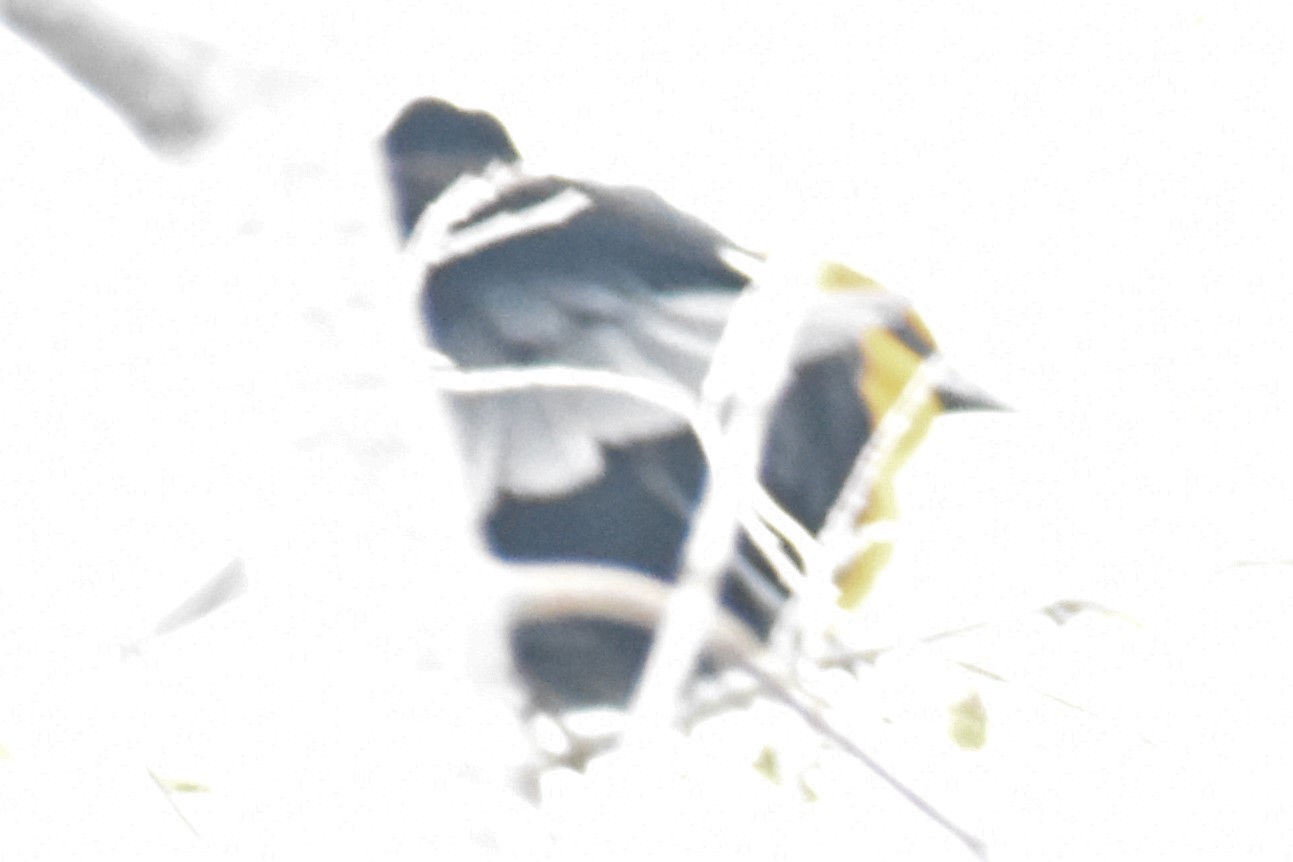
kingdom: Animalia
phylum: Chordata
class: Aves
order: Passeriformes
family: Icteridae
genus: Xanthocephalus
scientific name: Xanthocephalus xanthocephalus
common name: Yellow-headed blackbird
